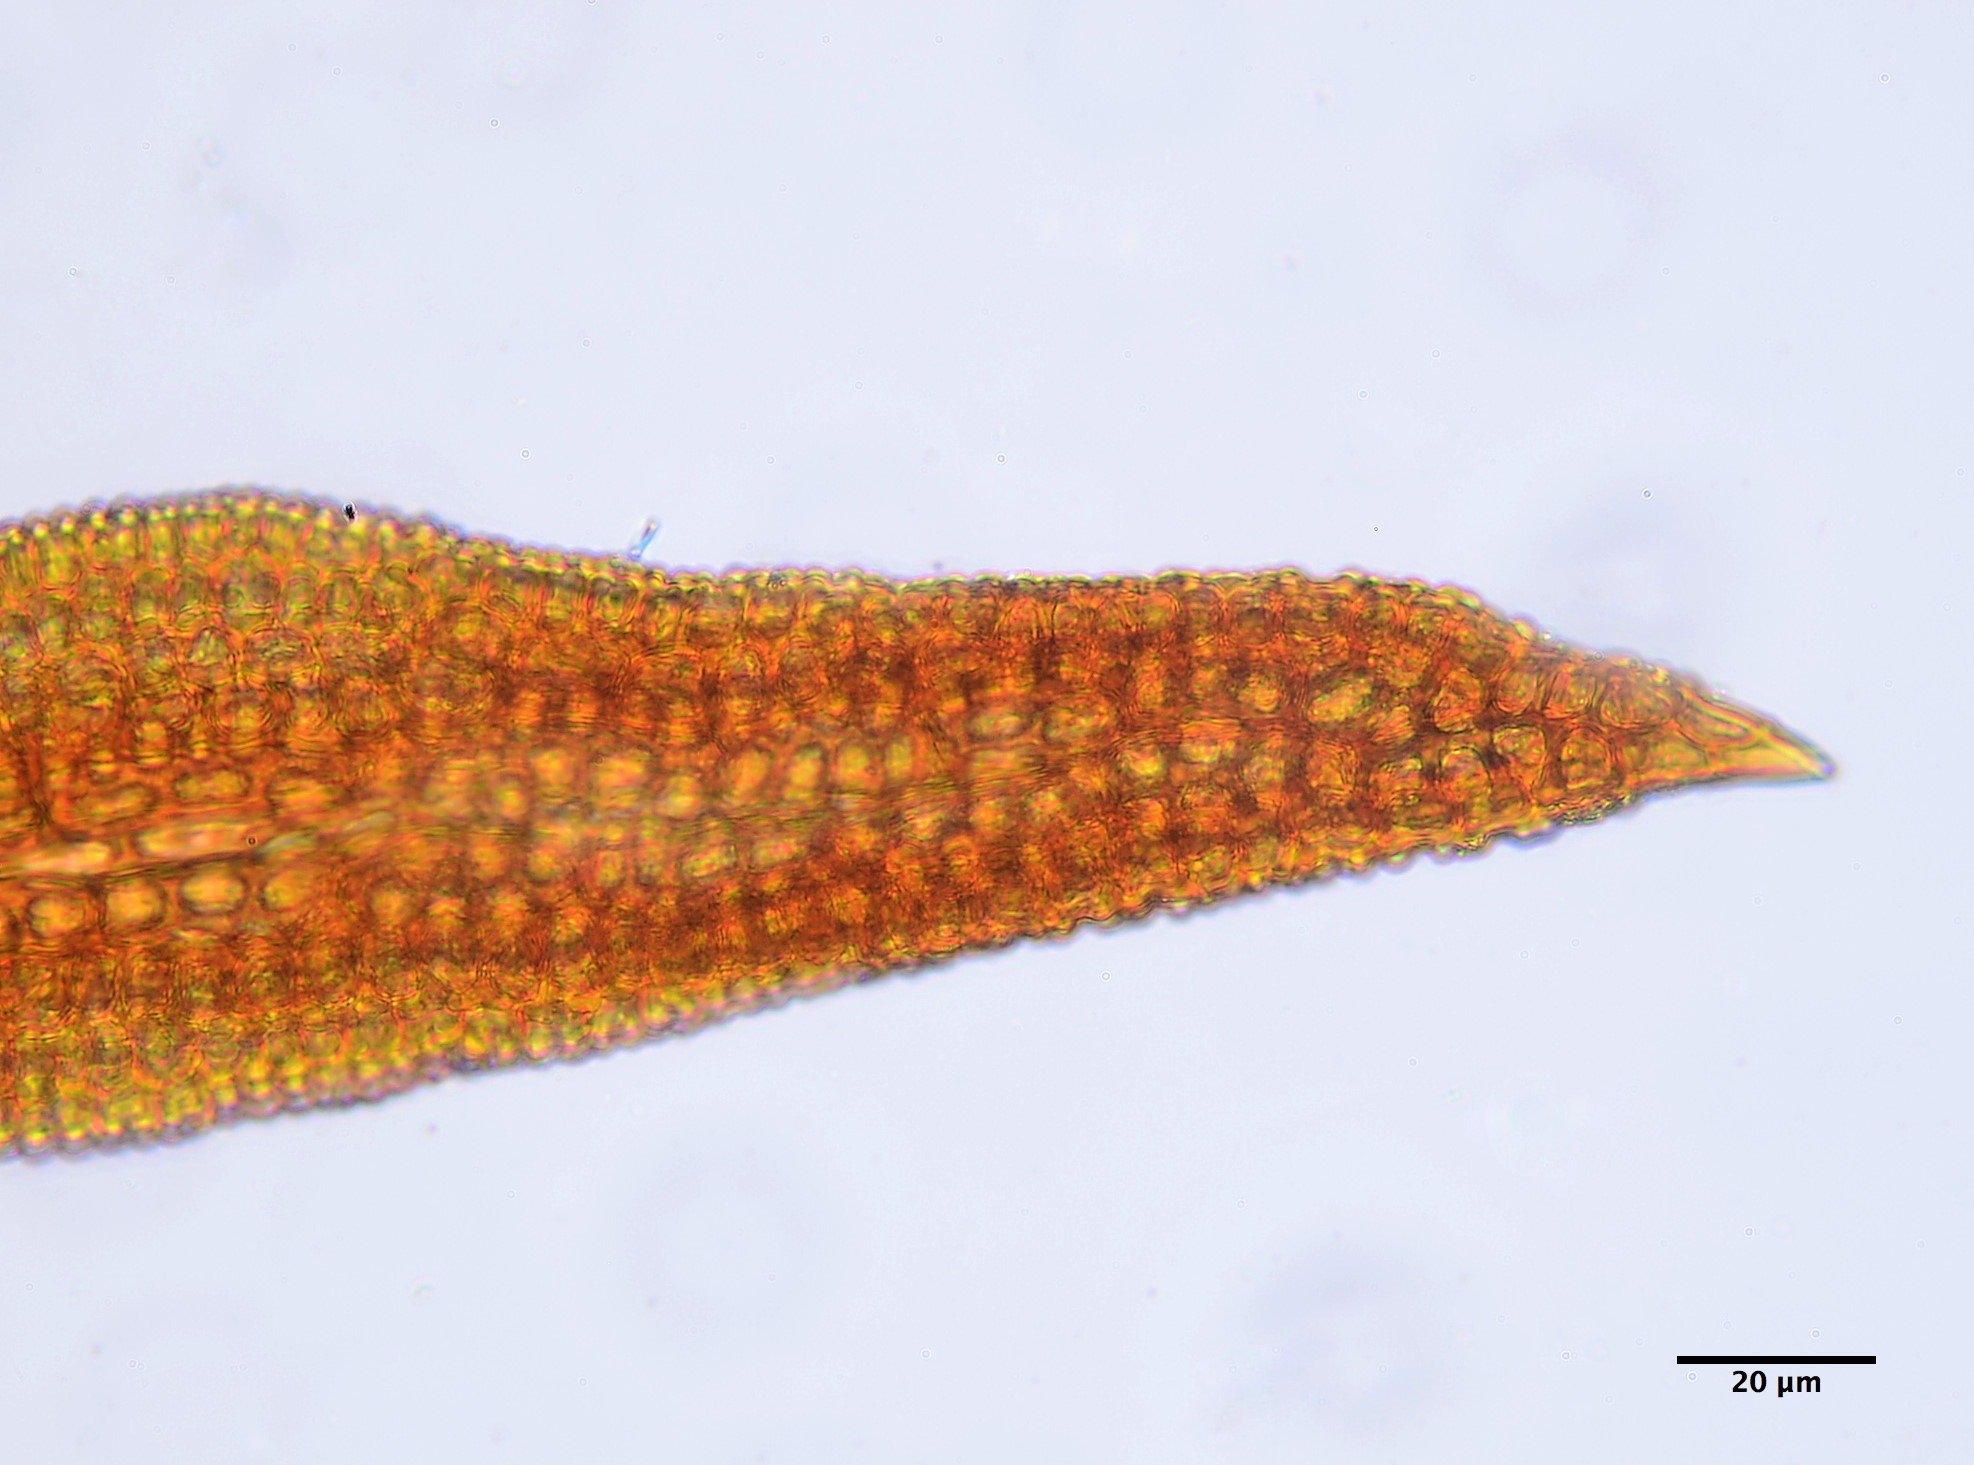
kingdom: Plantae
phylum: Bryophyta
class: Bryopsida
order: Pottiales
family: Pottiaceae
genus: Vinealobryum
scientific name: Vinealobryum vineale
